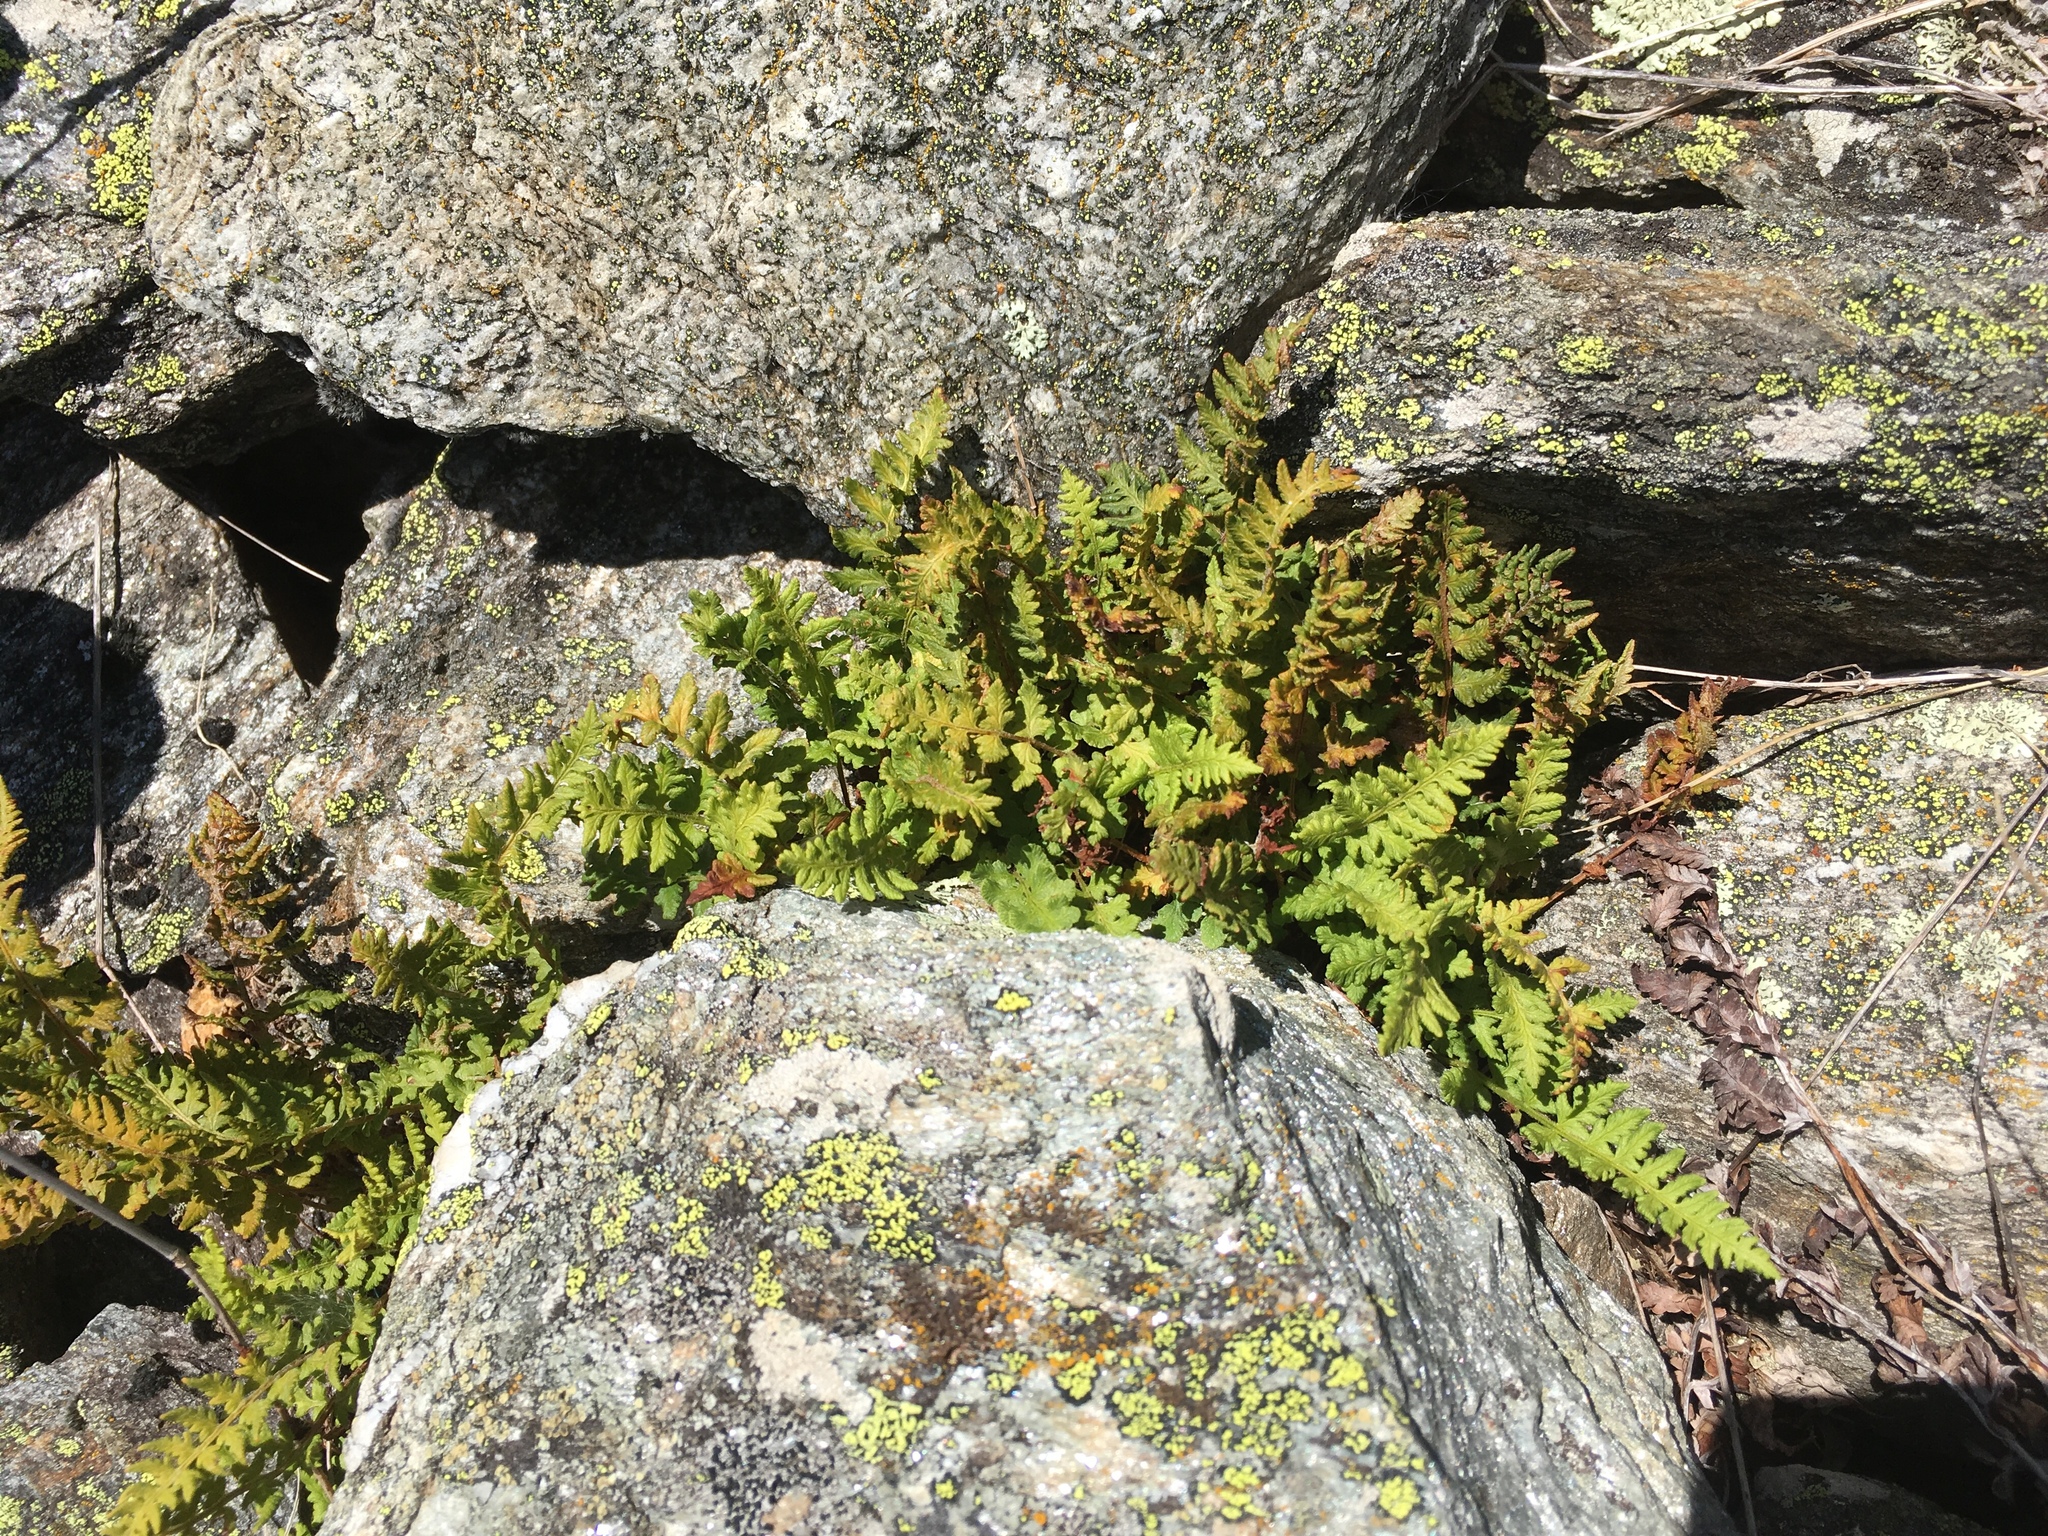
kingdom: Plantae
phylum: Tracheophyta
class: Polypodiopsida
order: Polypodiales
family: Woodsiaceae
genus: Woodsia
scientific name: Woodsia ilvensis
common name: Fragrant woodsia
